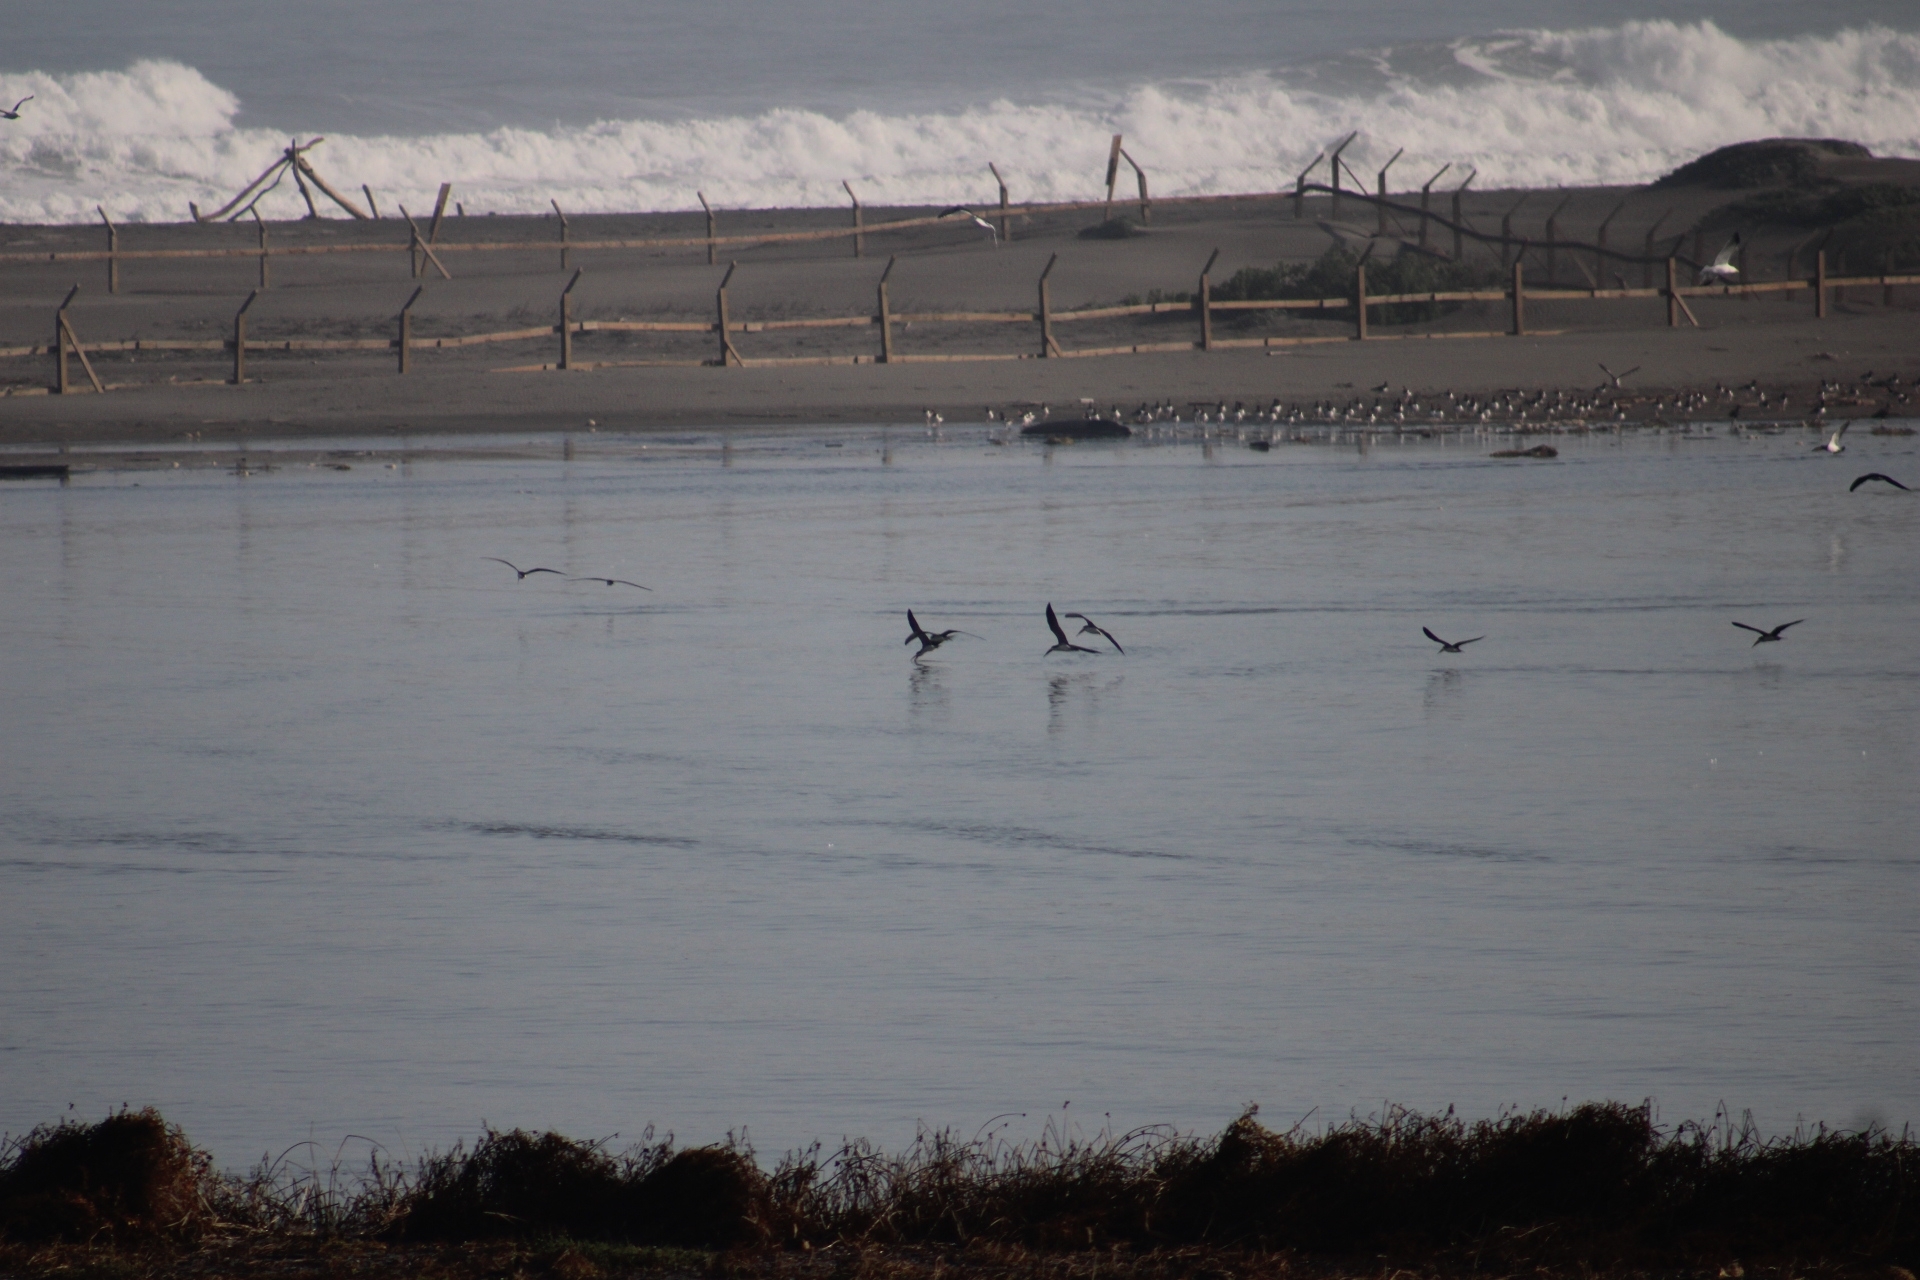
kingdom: Animalia
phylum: Chordata
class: Aves
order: Charadriiformes
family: Laridae
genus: Rynchops
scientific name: Rynchops niger
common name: Black skimmer
